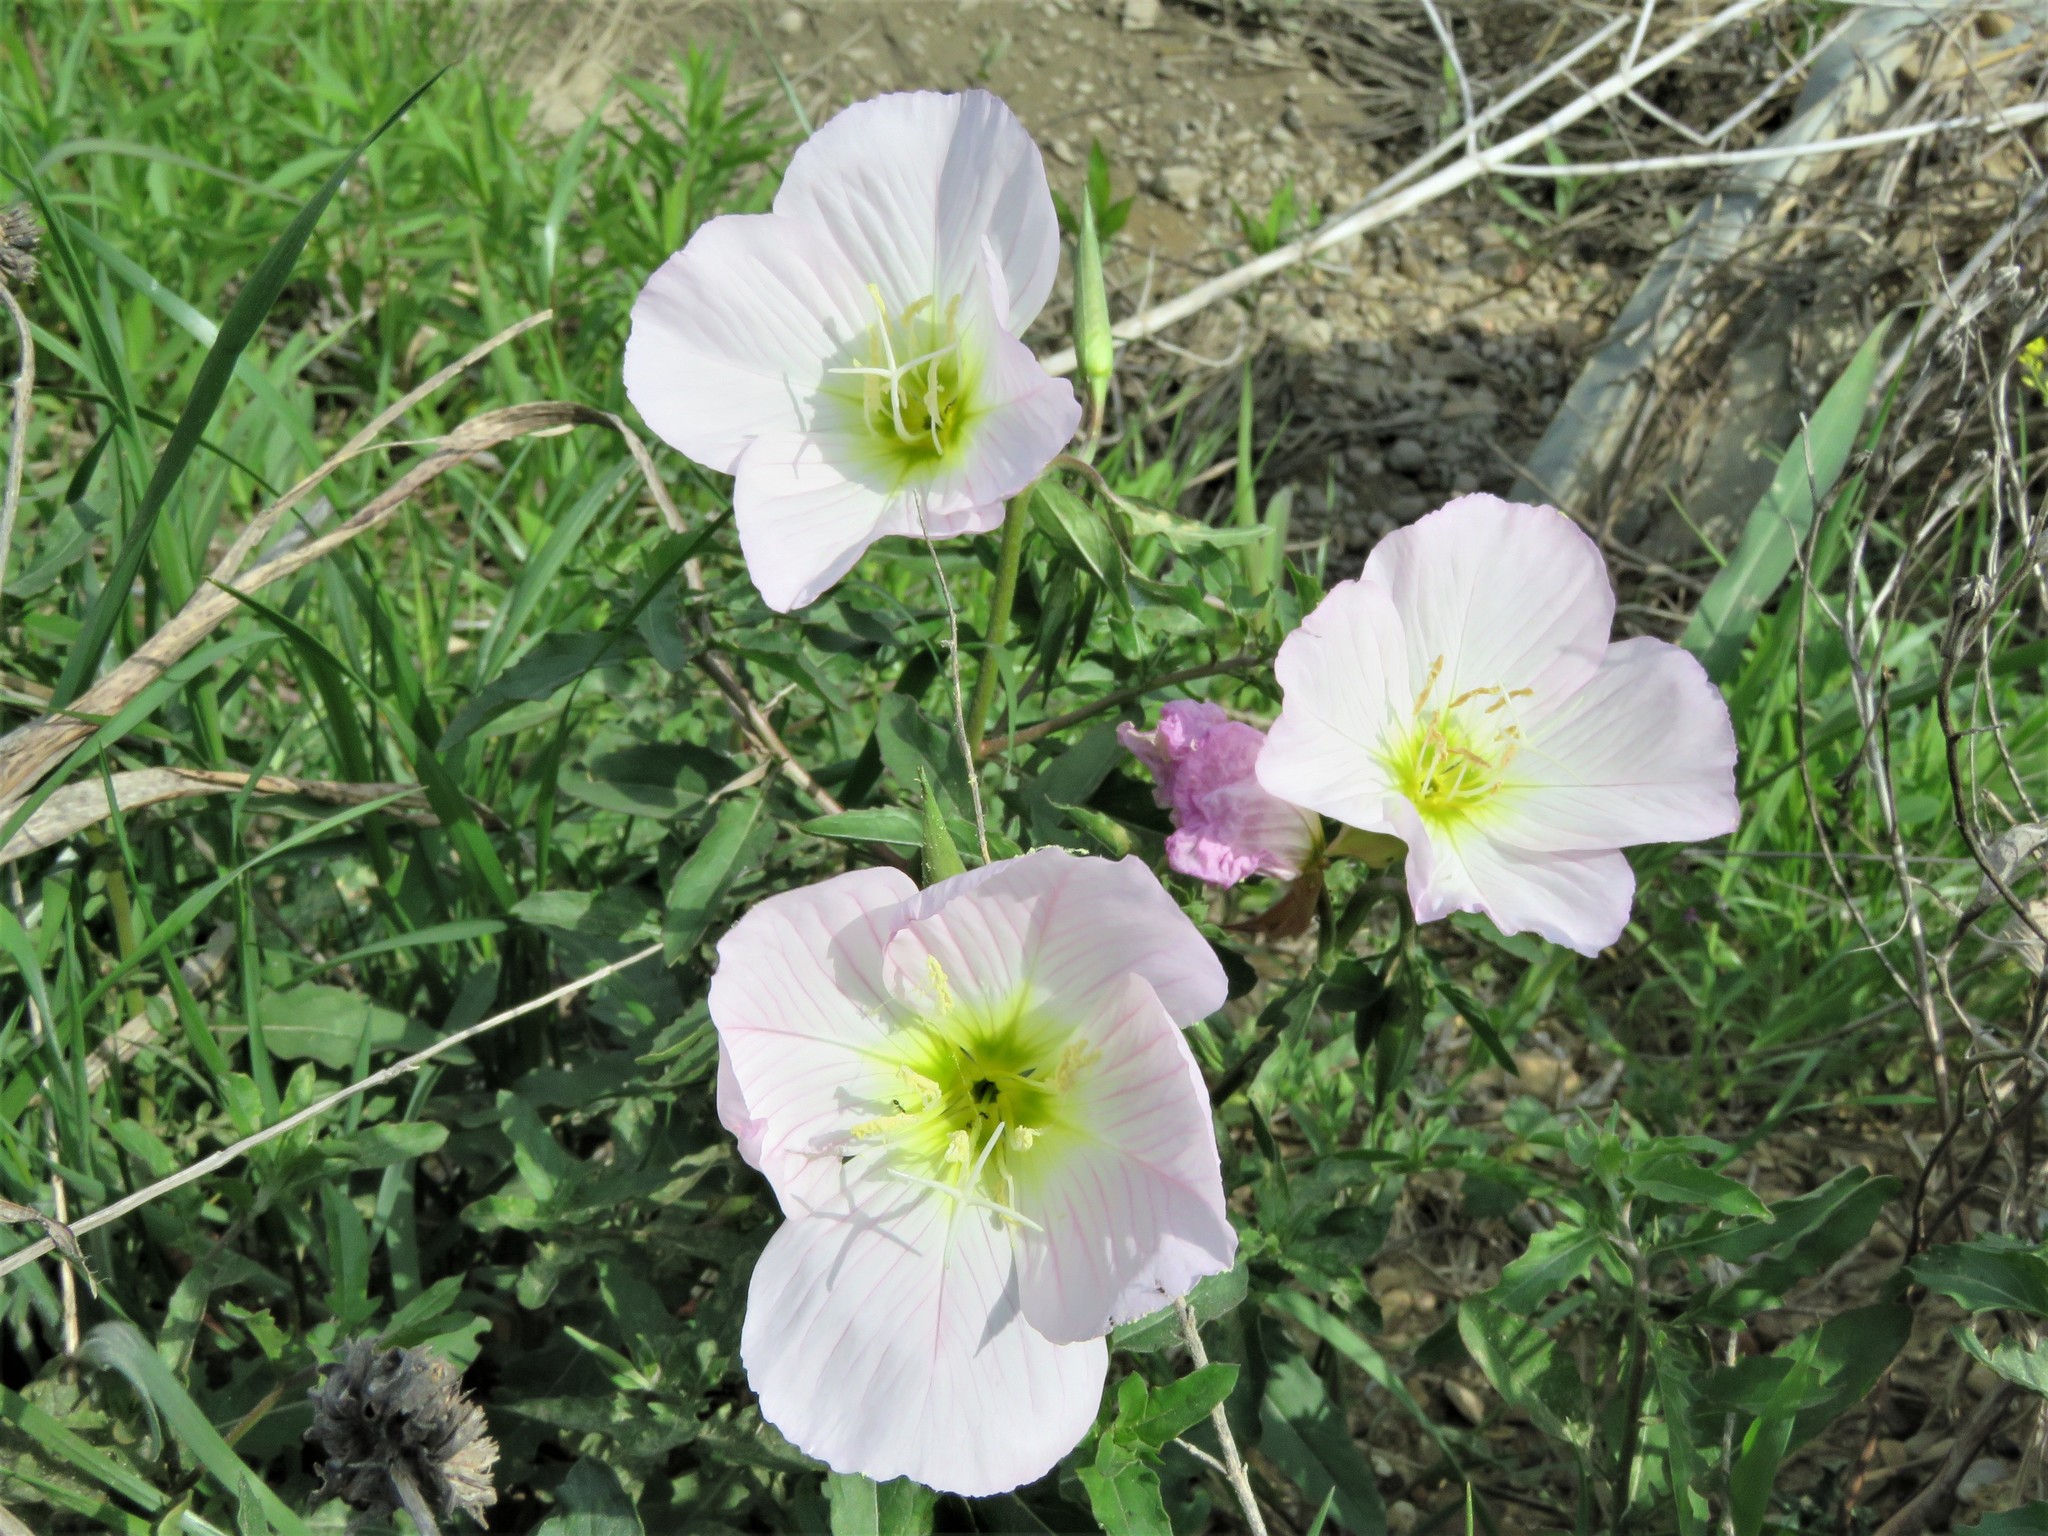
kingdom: Plantae
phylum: Tracheophyta
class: Magnoliopsida
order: Myrtales
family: Onagraceae
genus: Oenothera
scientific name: Oenothera speciosa
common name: White evening-primrose
